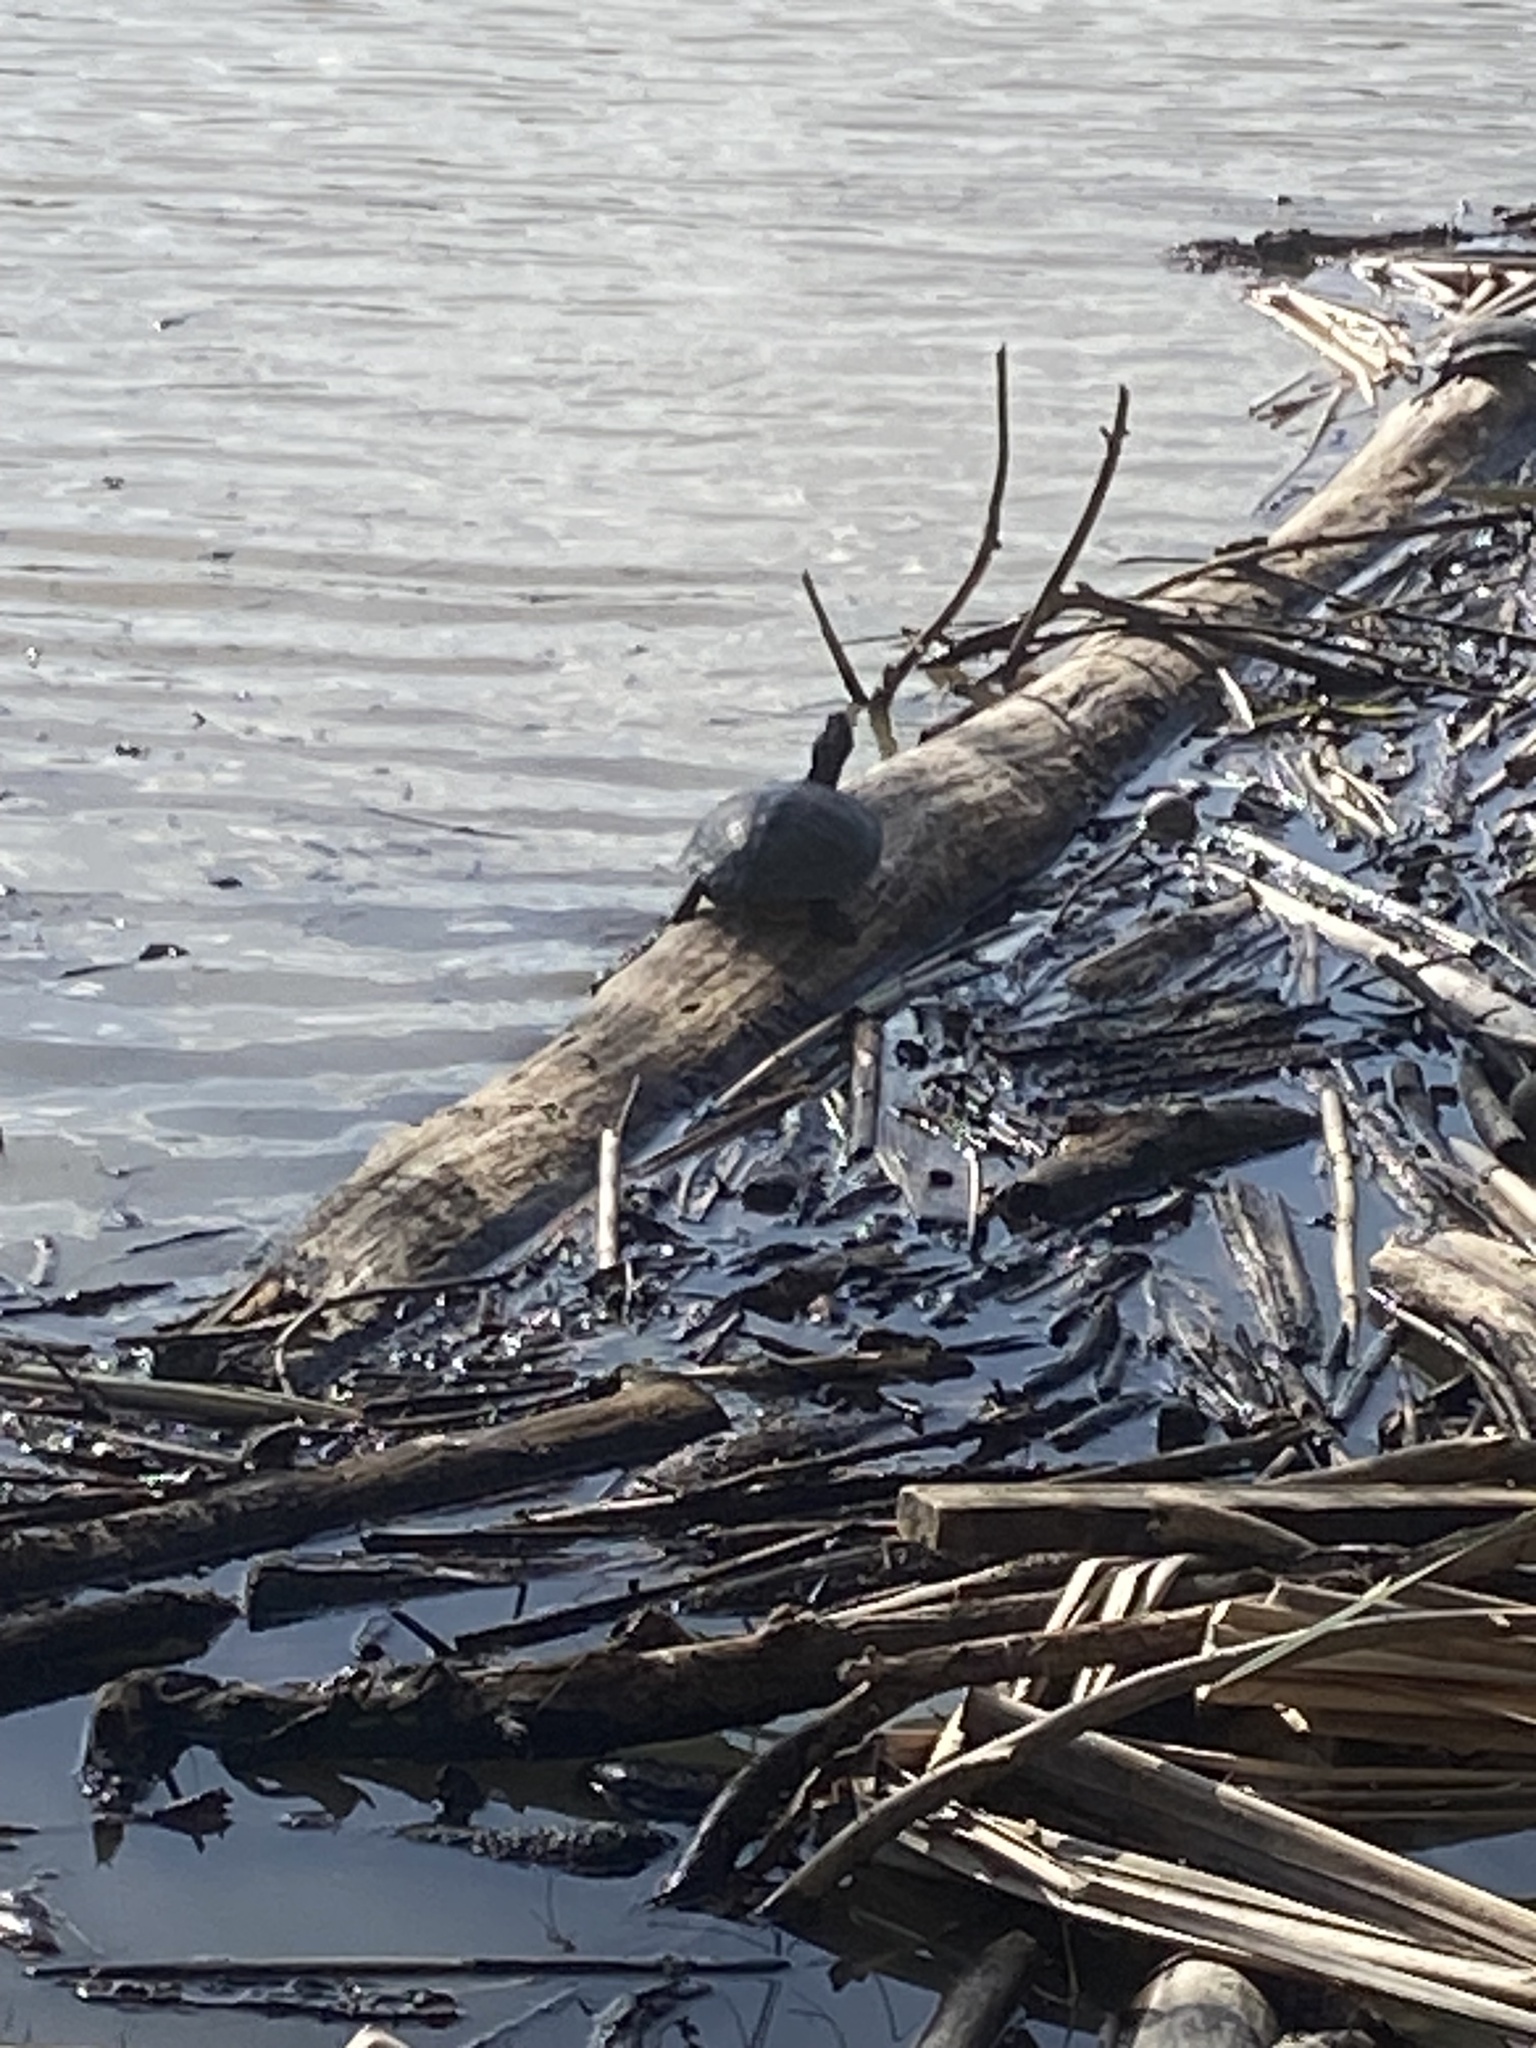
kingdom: Animalia
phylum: Chordata
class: Testudines
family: Emydidae
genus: Trachemys
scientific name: Trachemys scripta
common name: Slider
